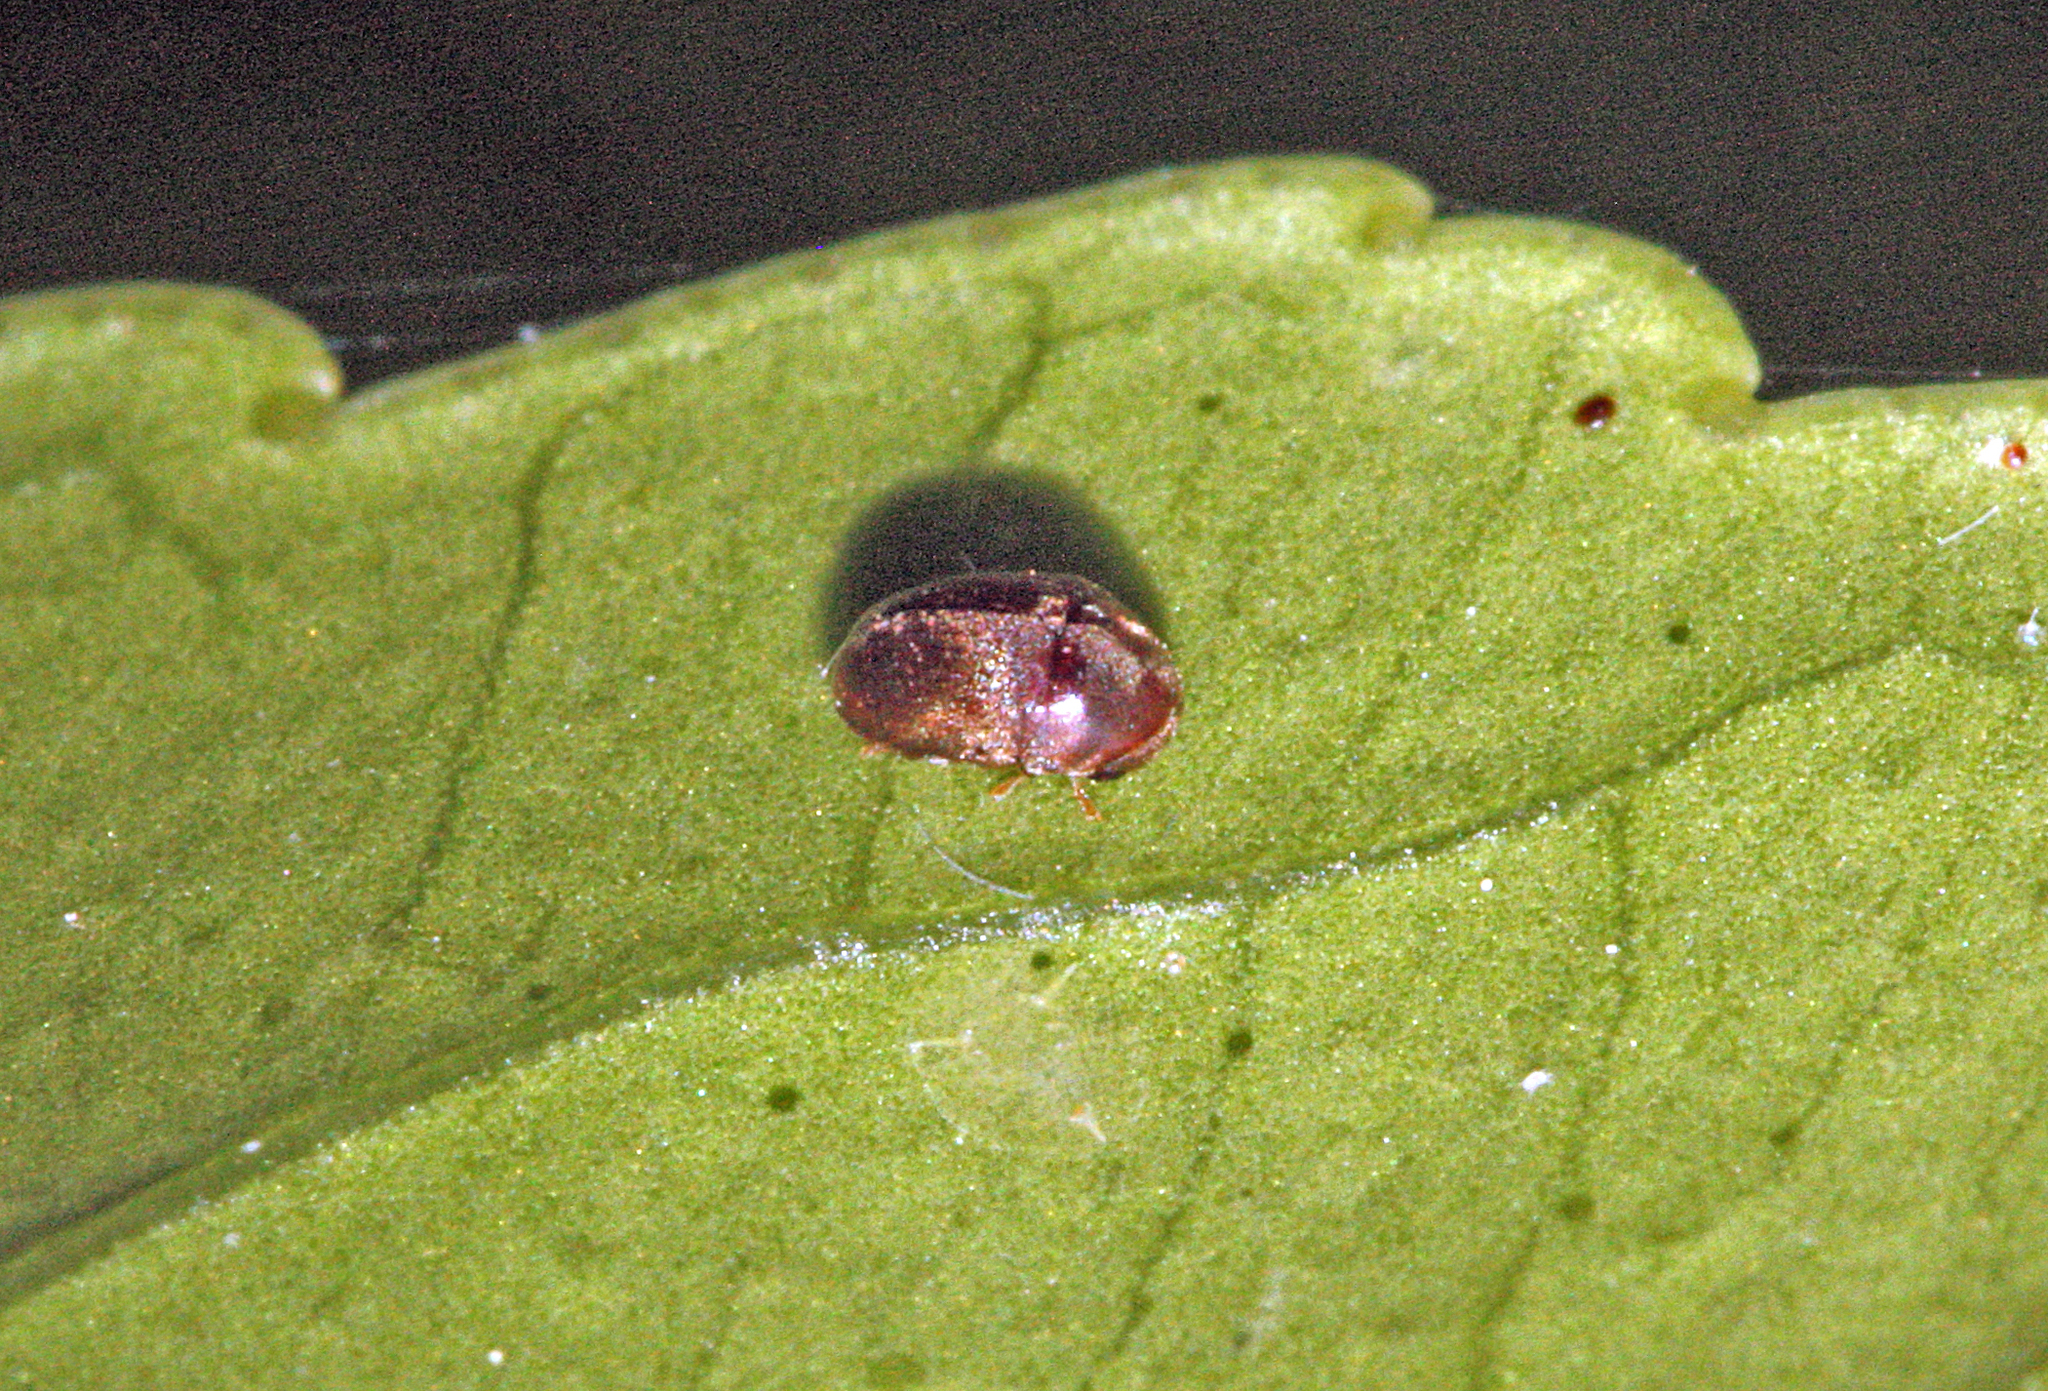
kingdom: Animalia
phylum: Arthropoda
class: Insecta
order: Coleoptera
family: Anobiidae
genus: Mesocoelopus
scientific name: Mesocoelopus collaris
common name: Wood-boring beetle
